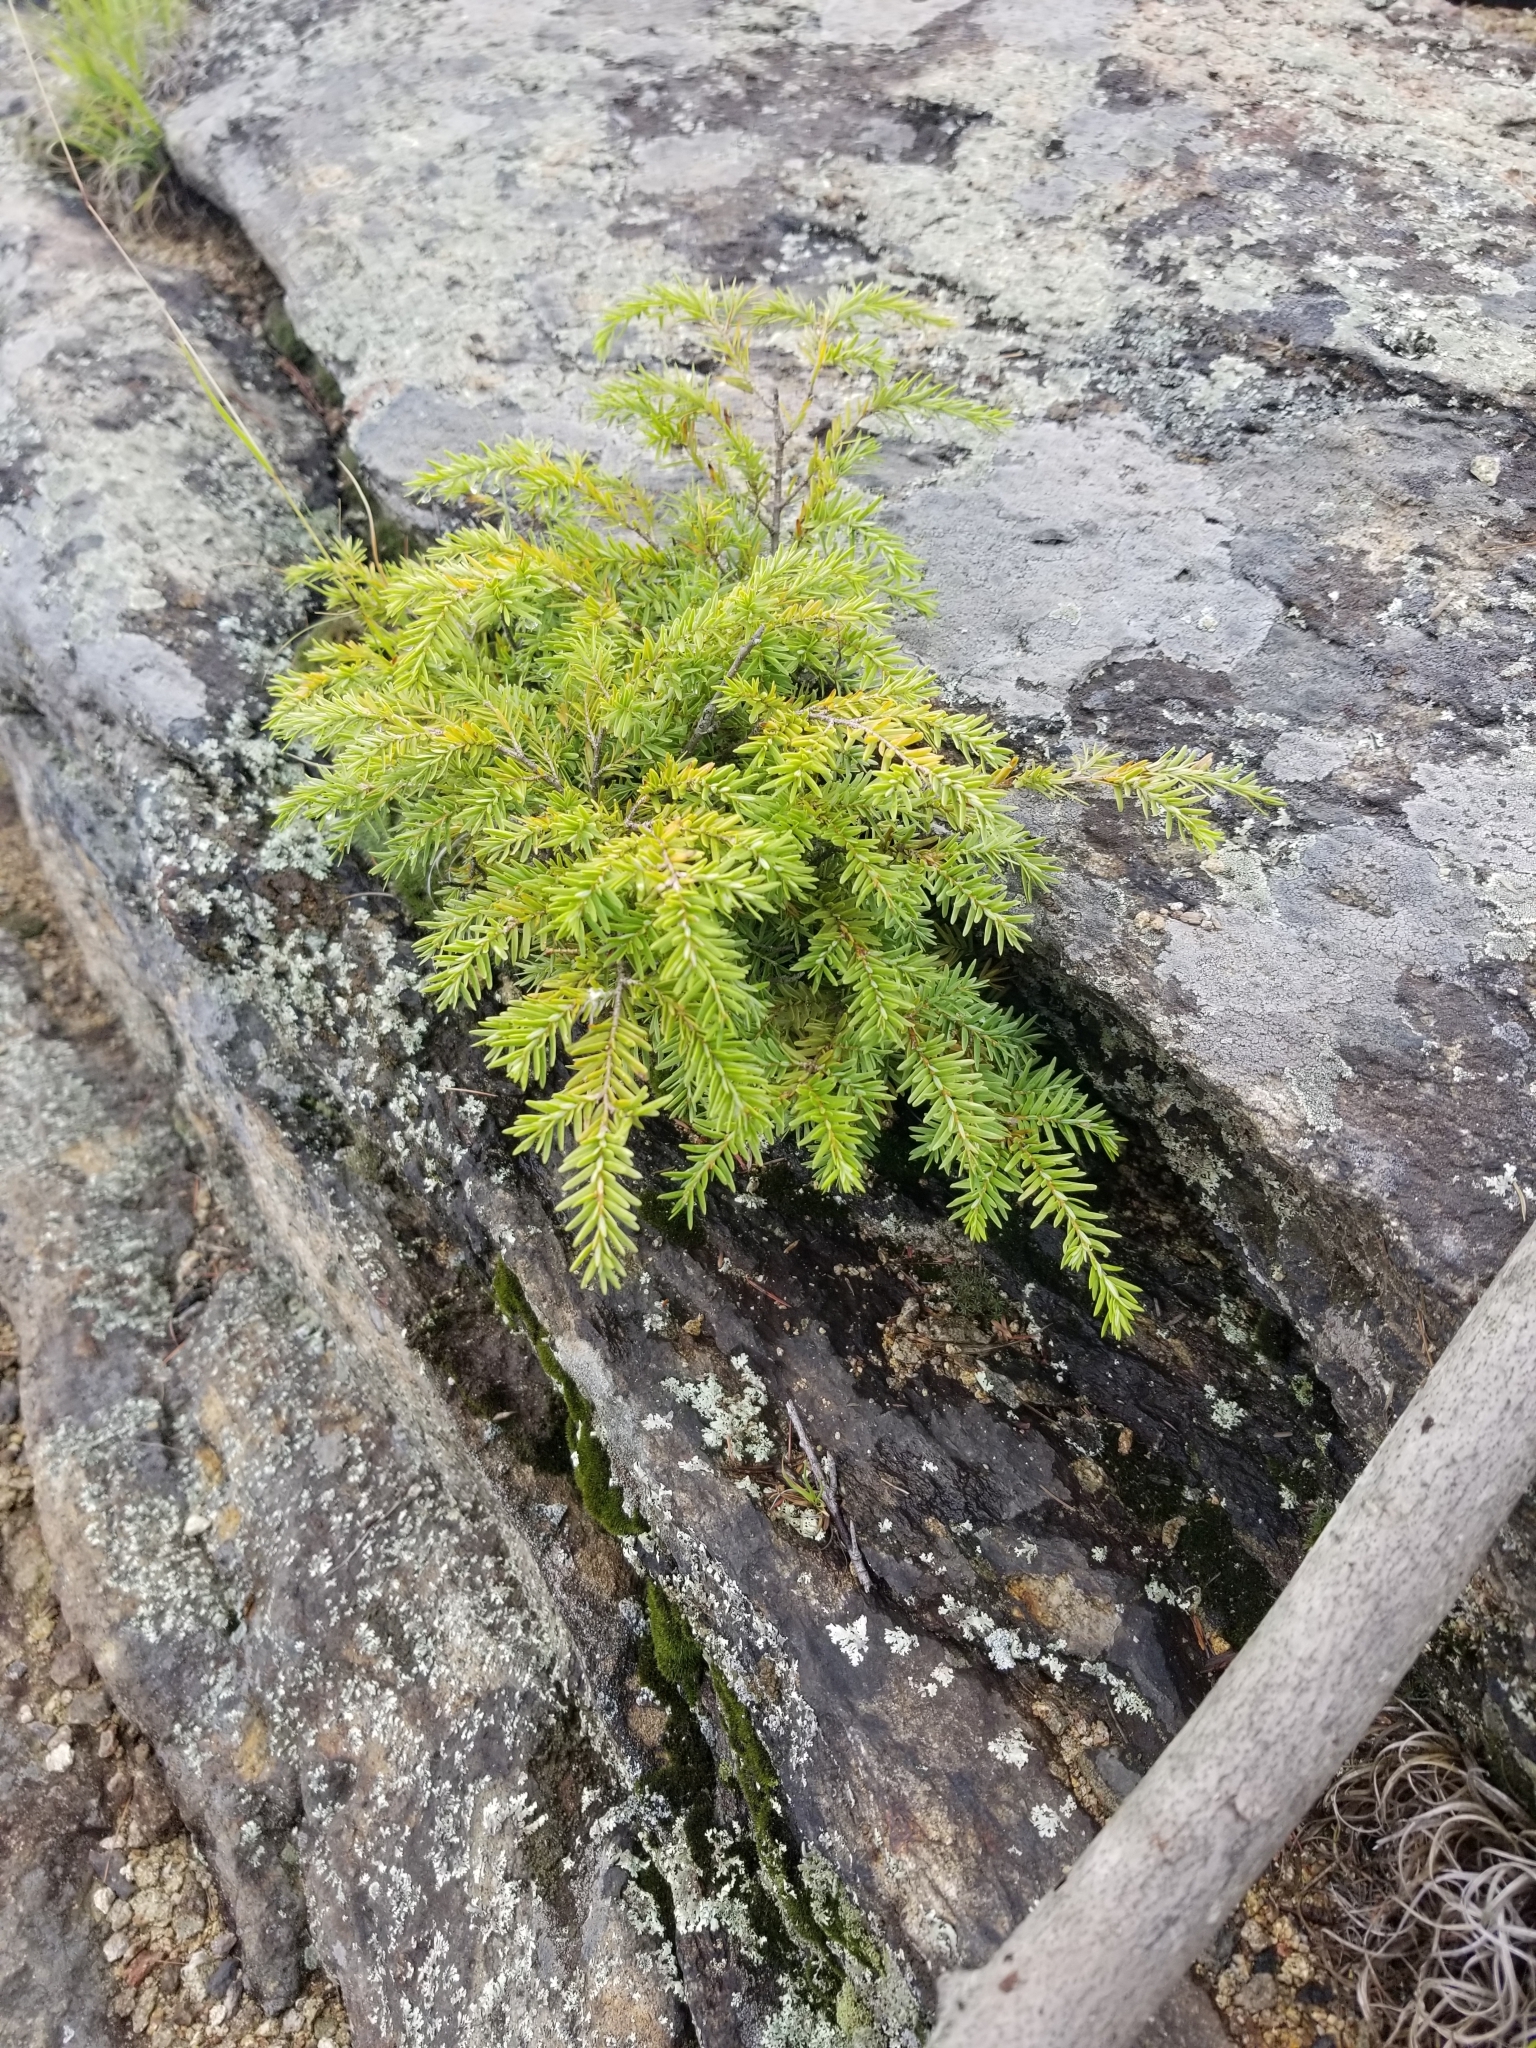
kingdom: Plantae
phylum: Tracheophyta
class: Pinopsida
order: Pinales
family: Pinaceae
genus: Tsuga
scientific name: Tsuga canadensis
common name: Eastern hemlock
